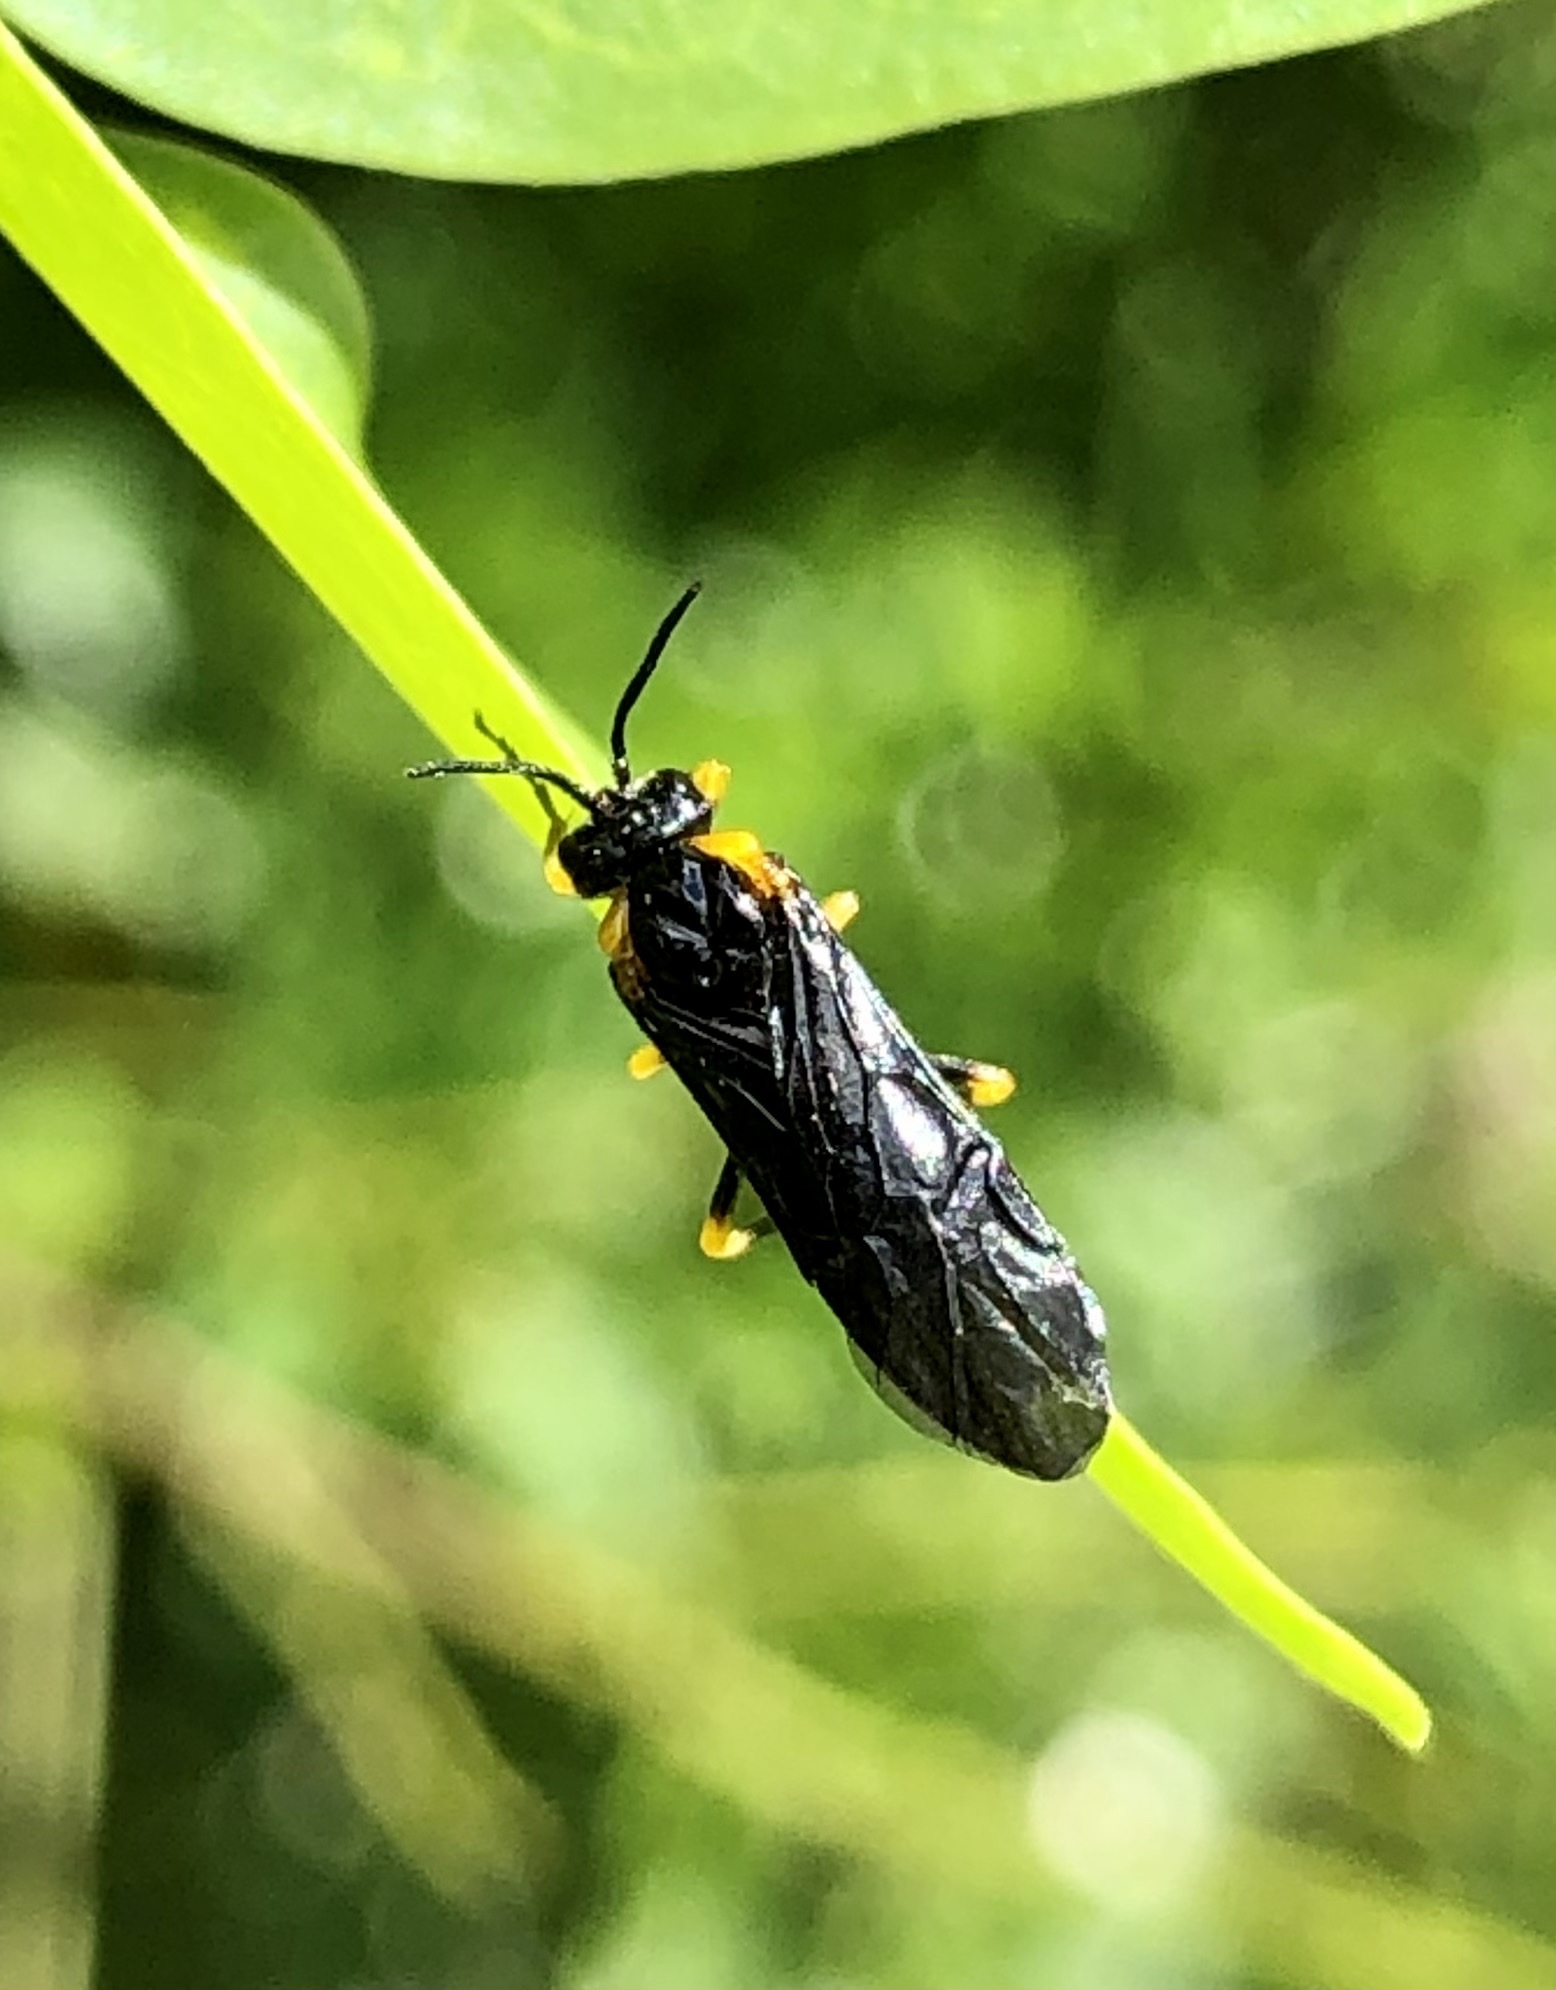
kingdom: Animalia
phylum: Arthropoda
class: Insecta
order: Hymenoptera
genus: Adurgoa
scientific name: Adurgoa
